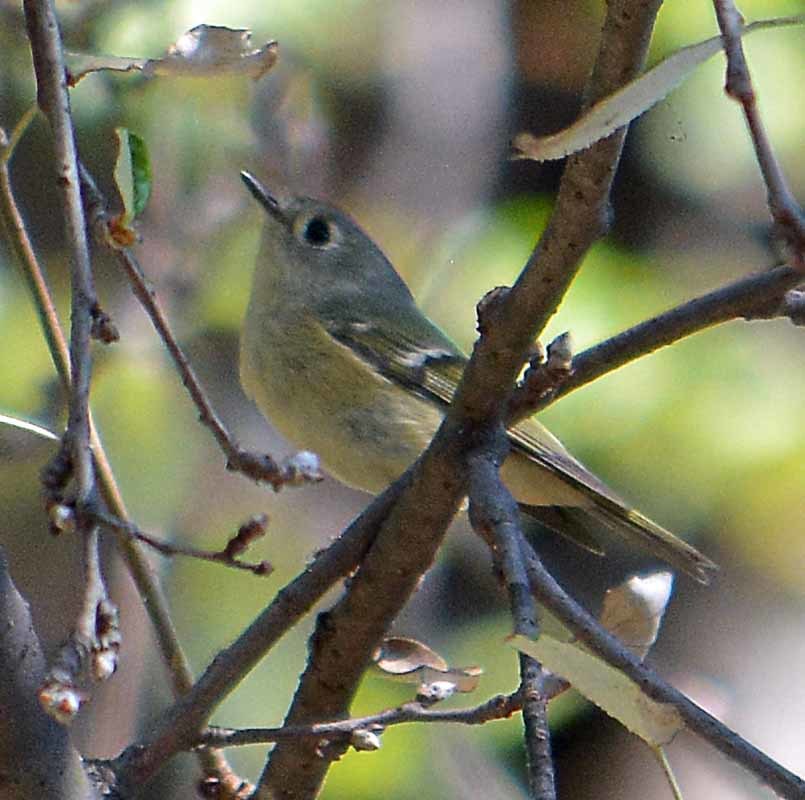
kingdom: Animalia
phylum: Chordata
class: Aves
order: Passeriformes
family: Regulidae
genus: Regulus
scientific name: Regulus calendula
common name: Ruby-crowned kinglet
